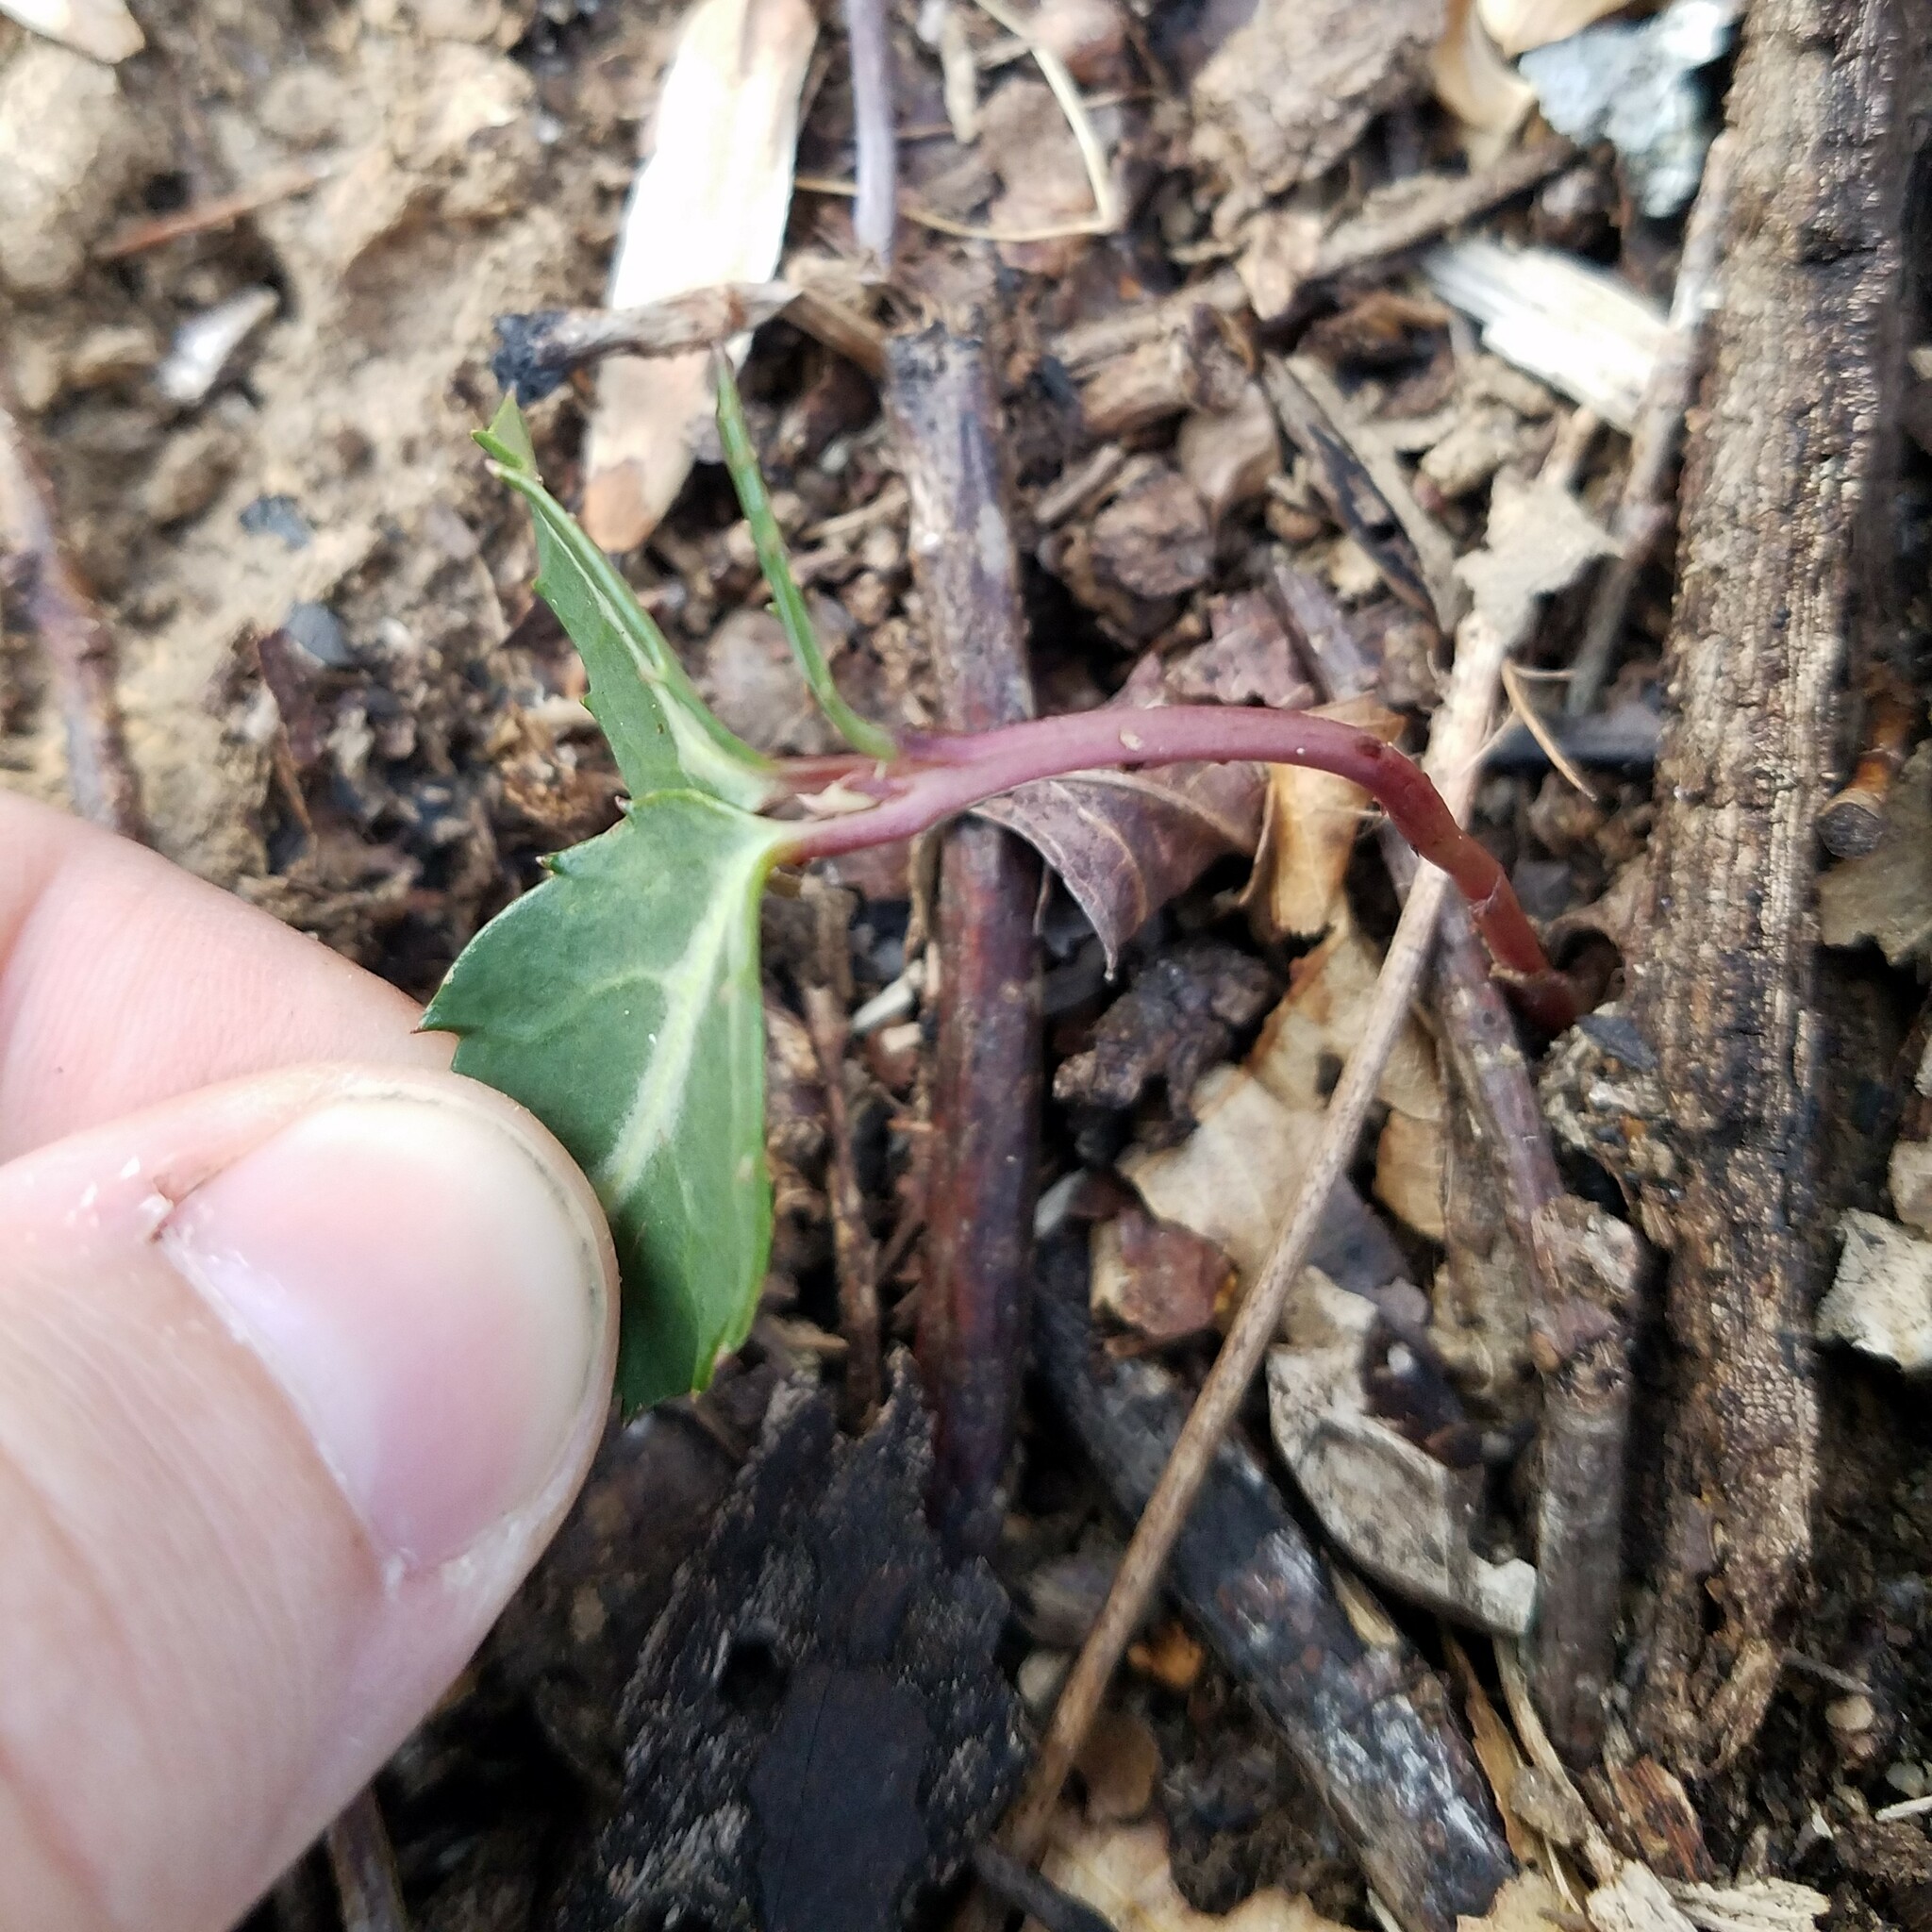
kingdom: Plantae
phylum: Tracheophyta
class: Magnoliopsida
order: Ericales
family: Ericaceae
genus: Chimaphila
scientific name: Chimaphila maculata
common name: Spotted pipsissewa
